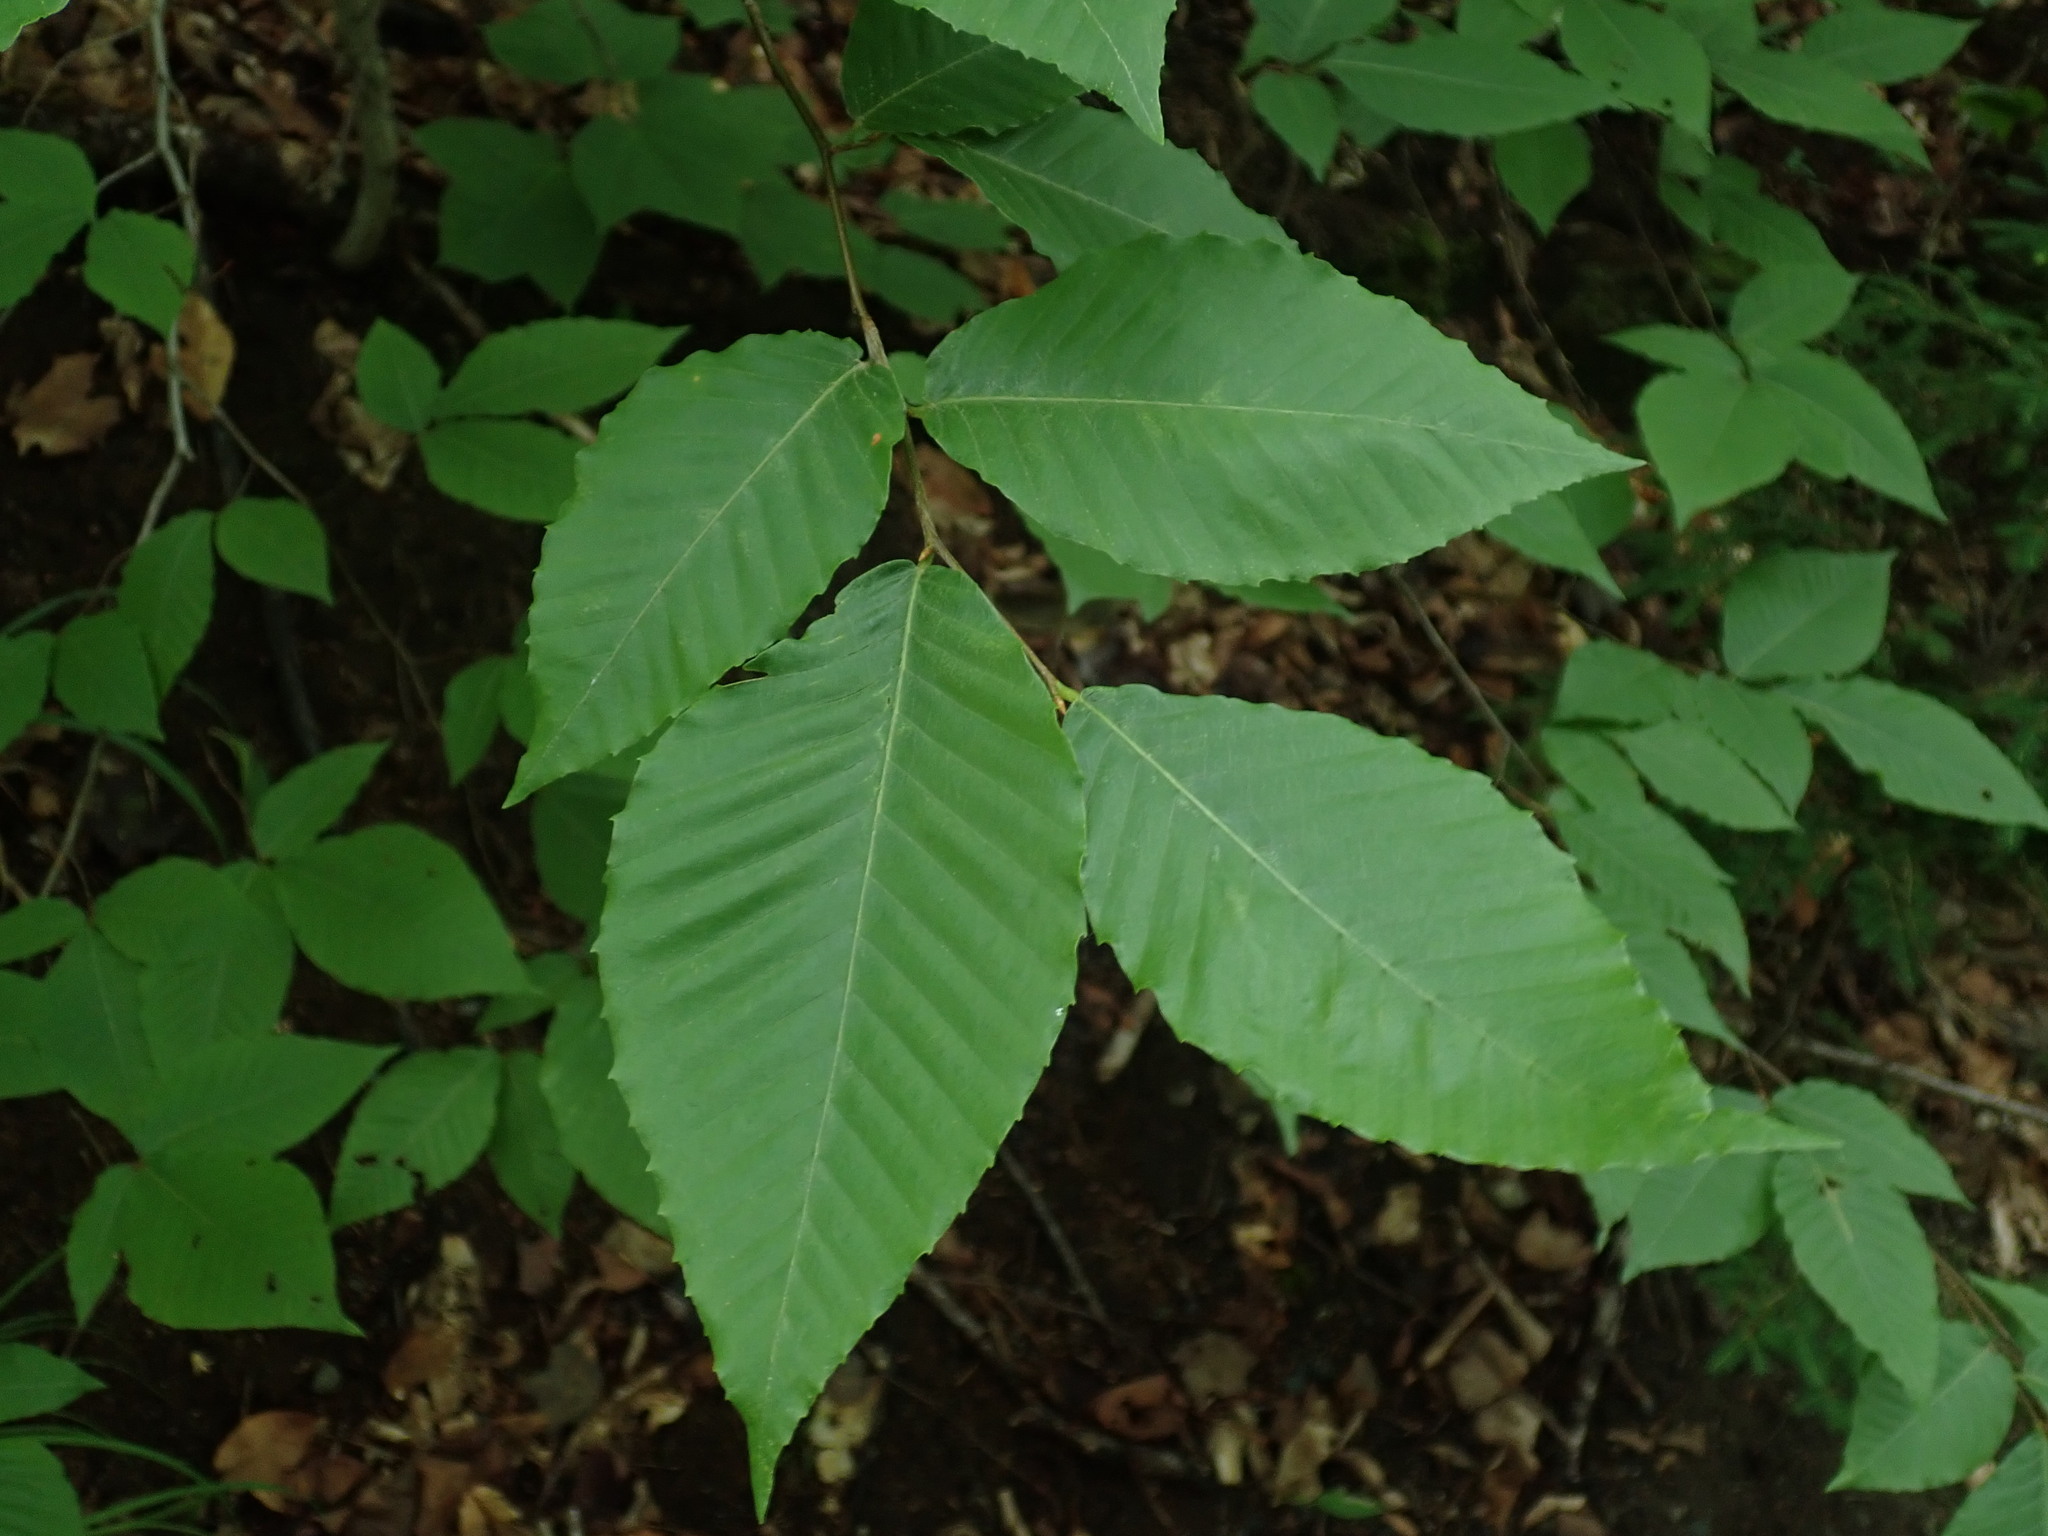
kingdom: Plantae
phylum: Tracheophyta
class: Magnoliopsida
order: Fagales
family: Fagaceae
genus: Fagus
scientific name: Fagus grandifolia
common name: American beech
